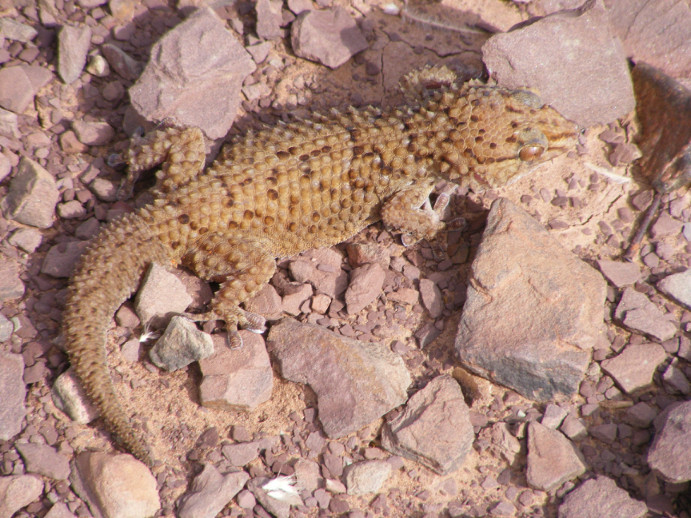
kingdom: Animalia
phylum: Chordata
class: Squamata
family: Gekkonidae
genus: Chondrodactylus
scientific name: Chondrodactylus bibronii
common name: Bibron's gecko
